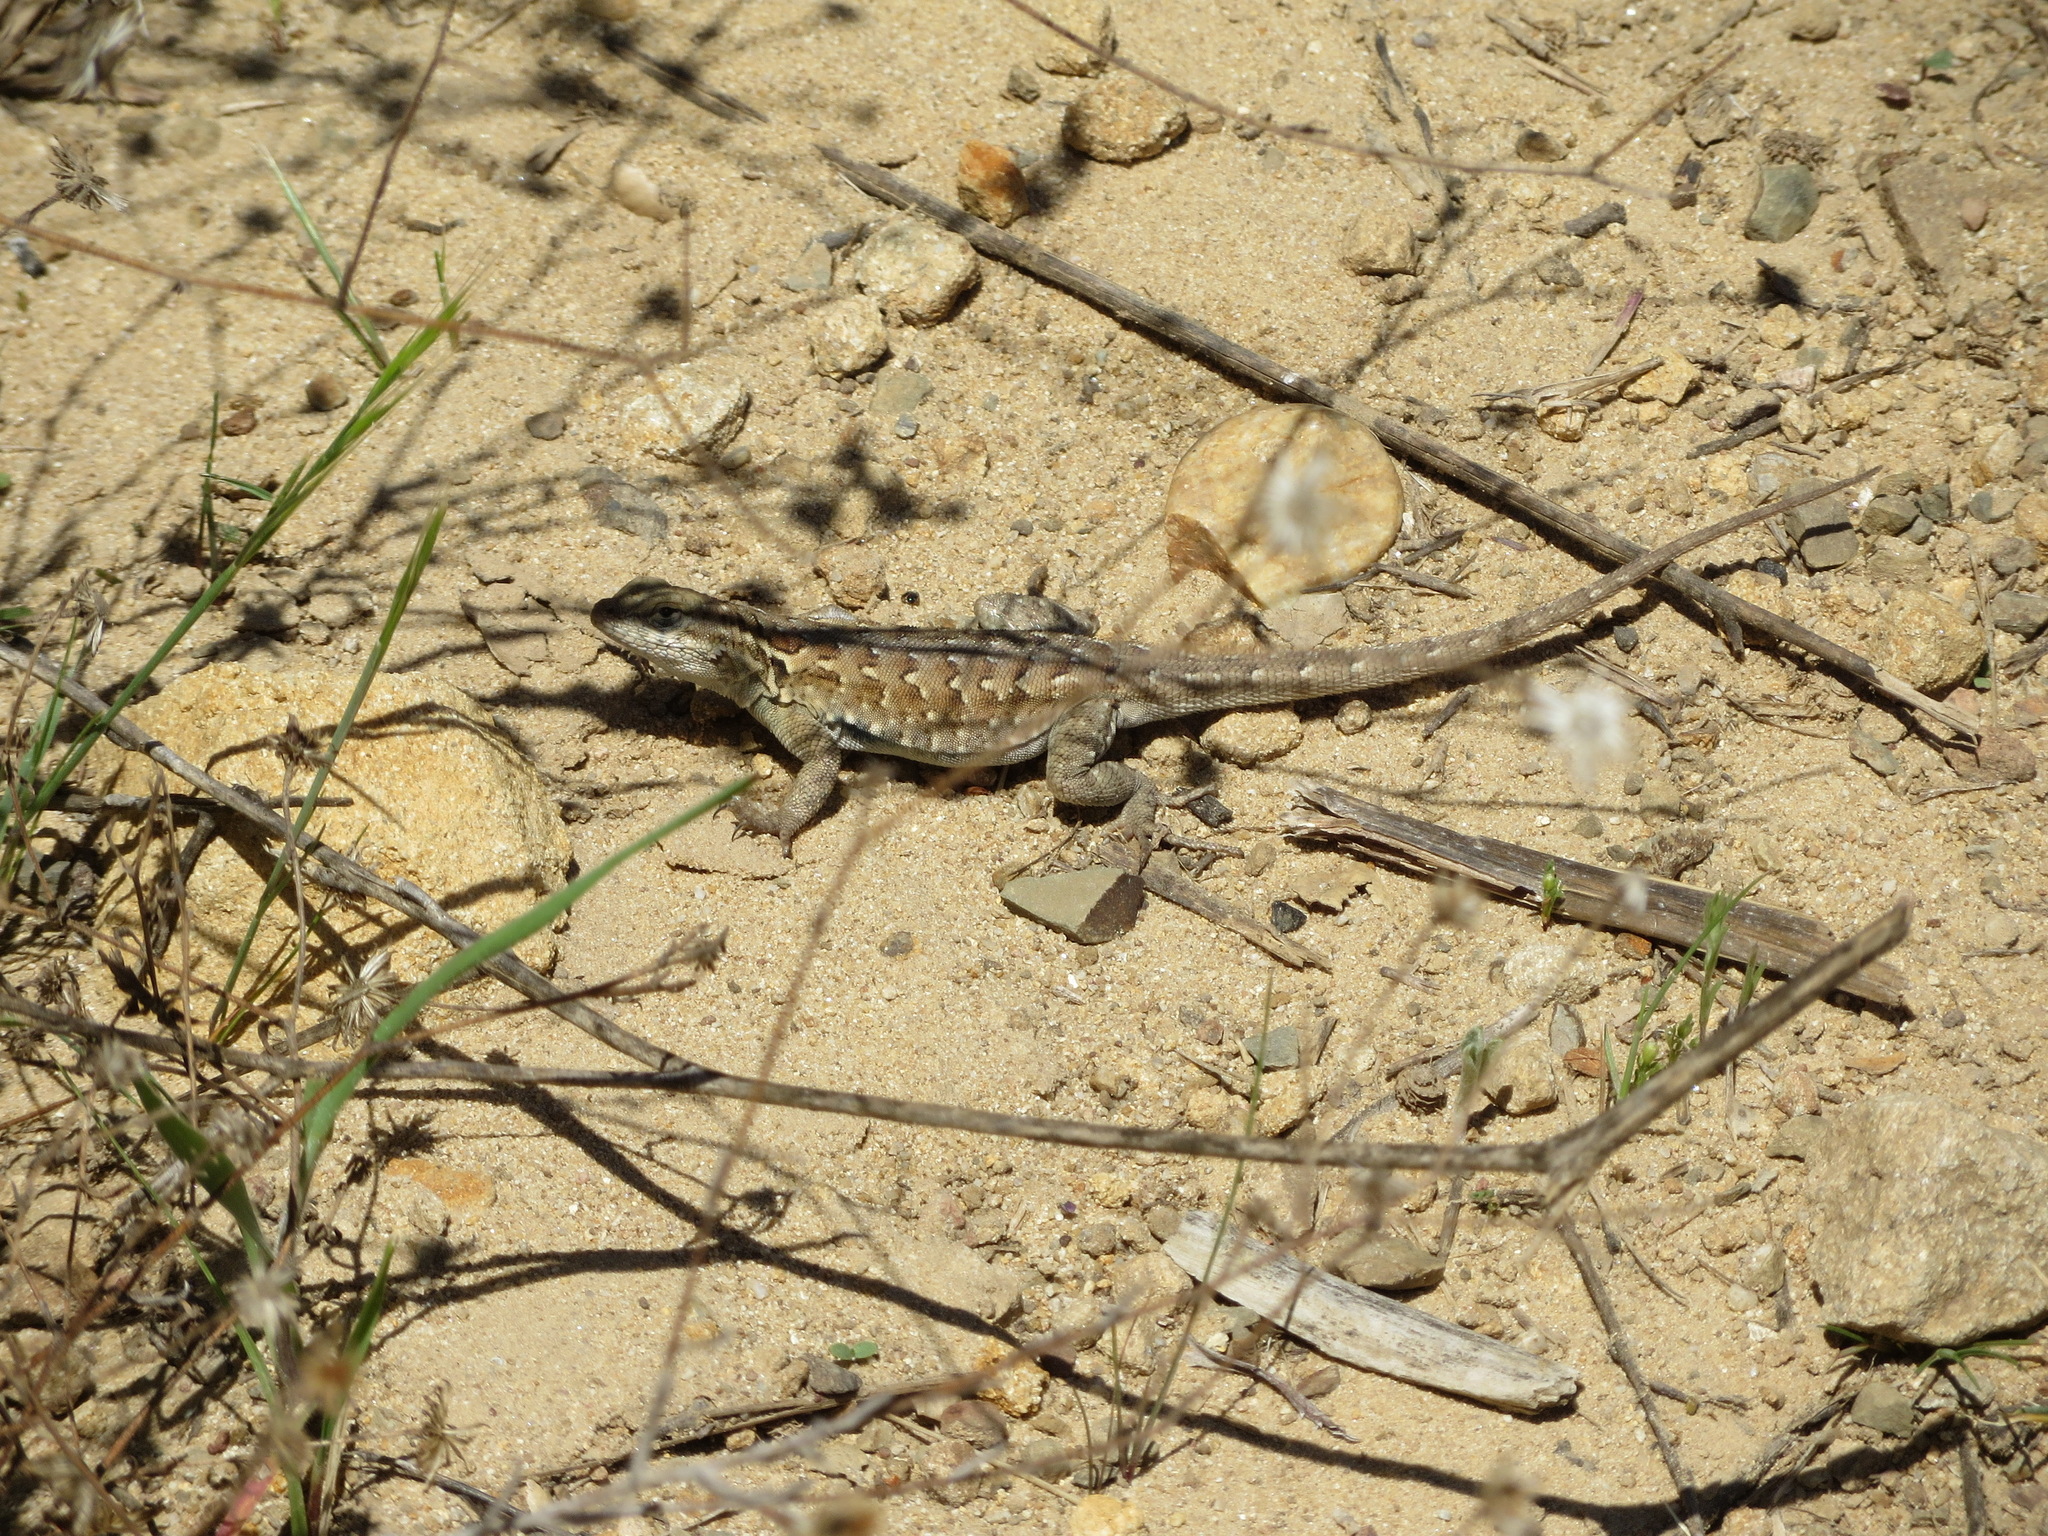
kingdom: Animalia
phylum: Chordata
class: Squamata
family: Phrynosomatidae
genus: Uta
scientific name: Uta stansburiana
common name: Side-blotched lizard
